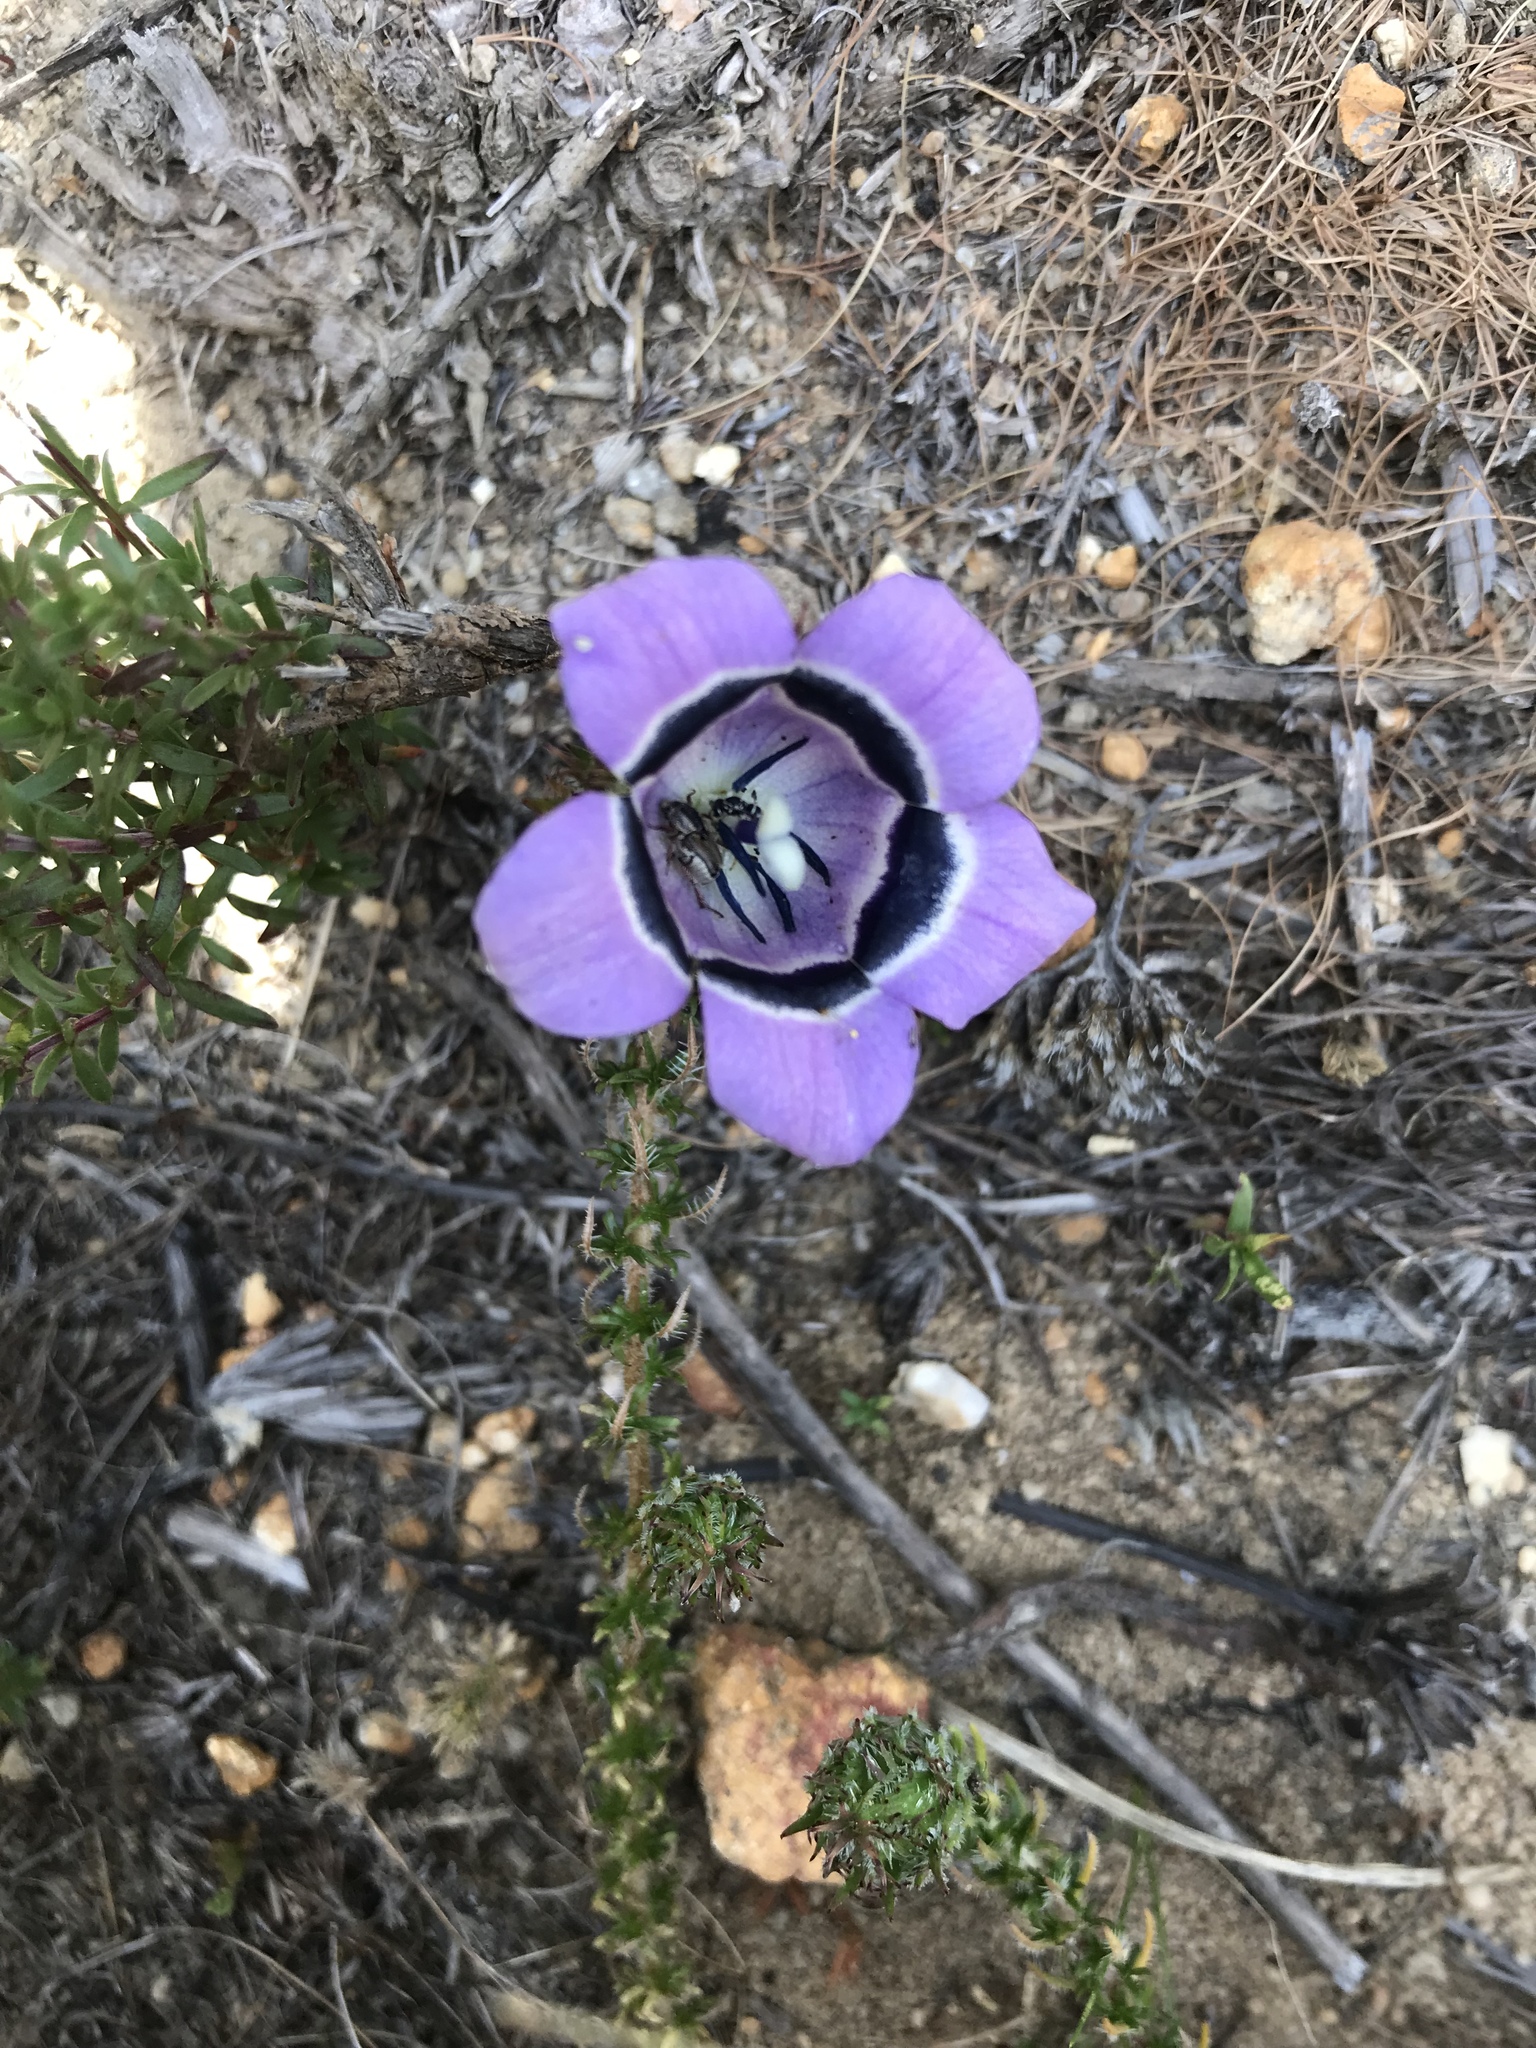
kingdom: Plantae
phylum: Tracheophyta
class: Magnoliopsida
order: Asterales
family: Campanulaceae
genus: Roella
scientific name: Roella ciliata
